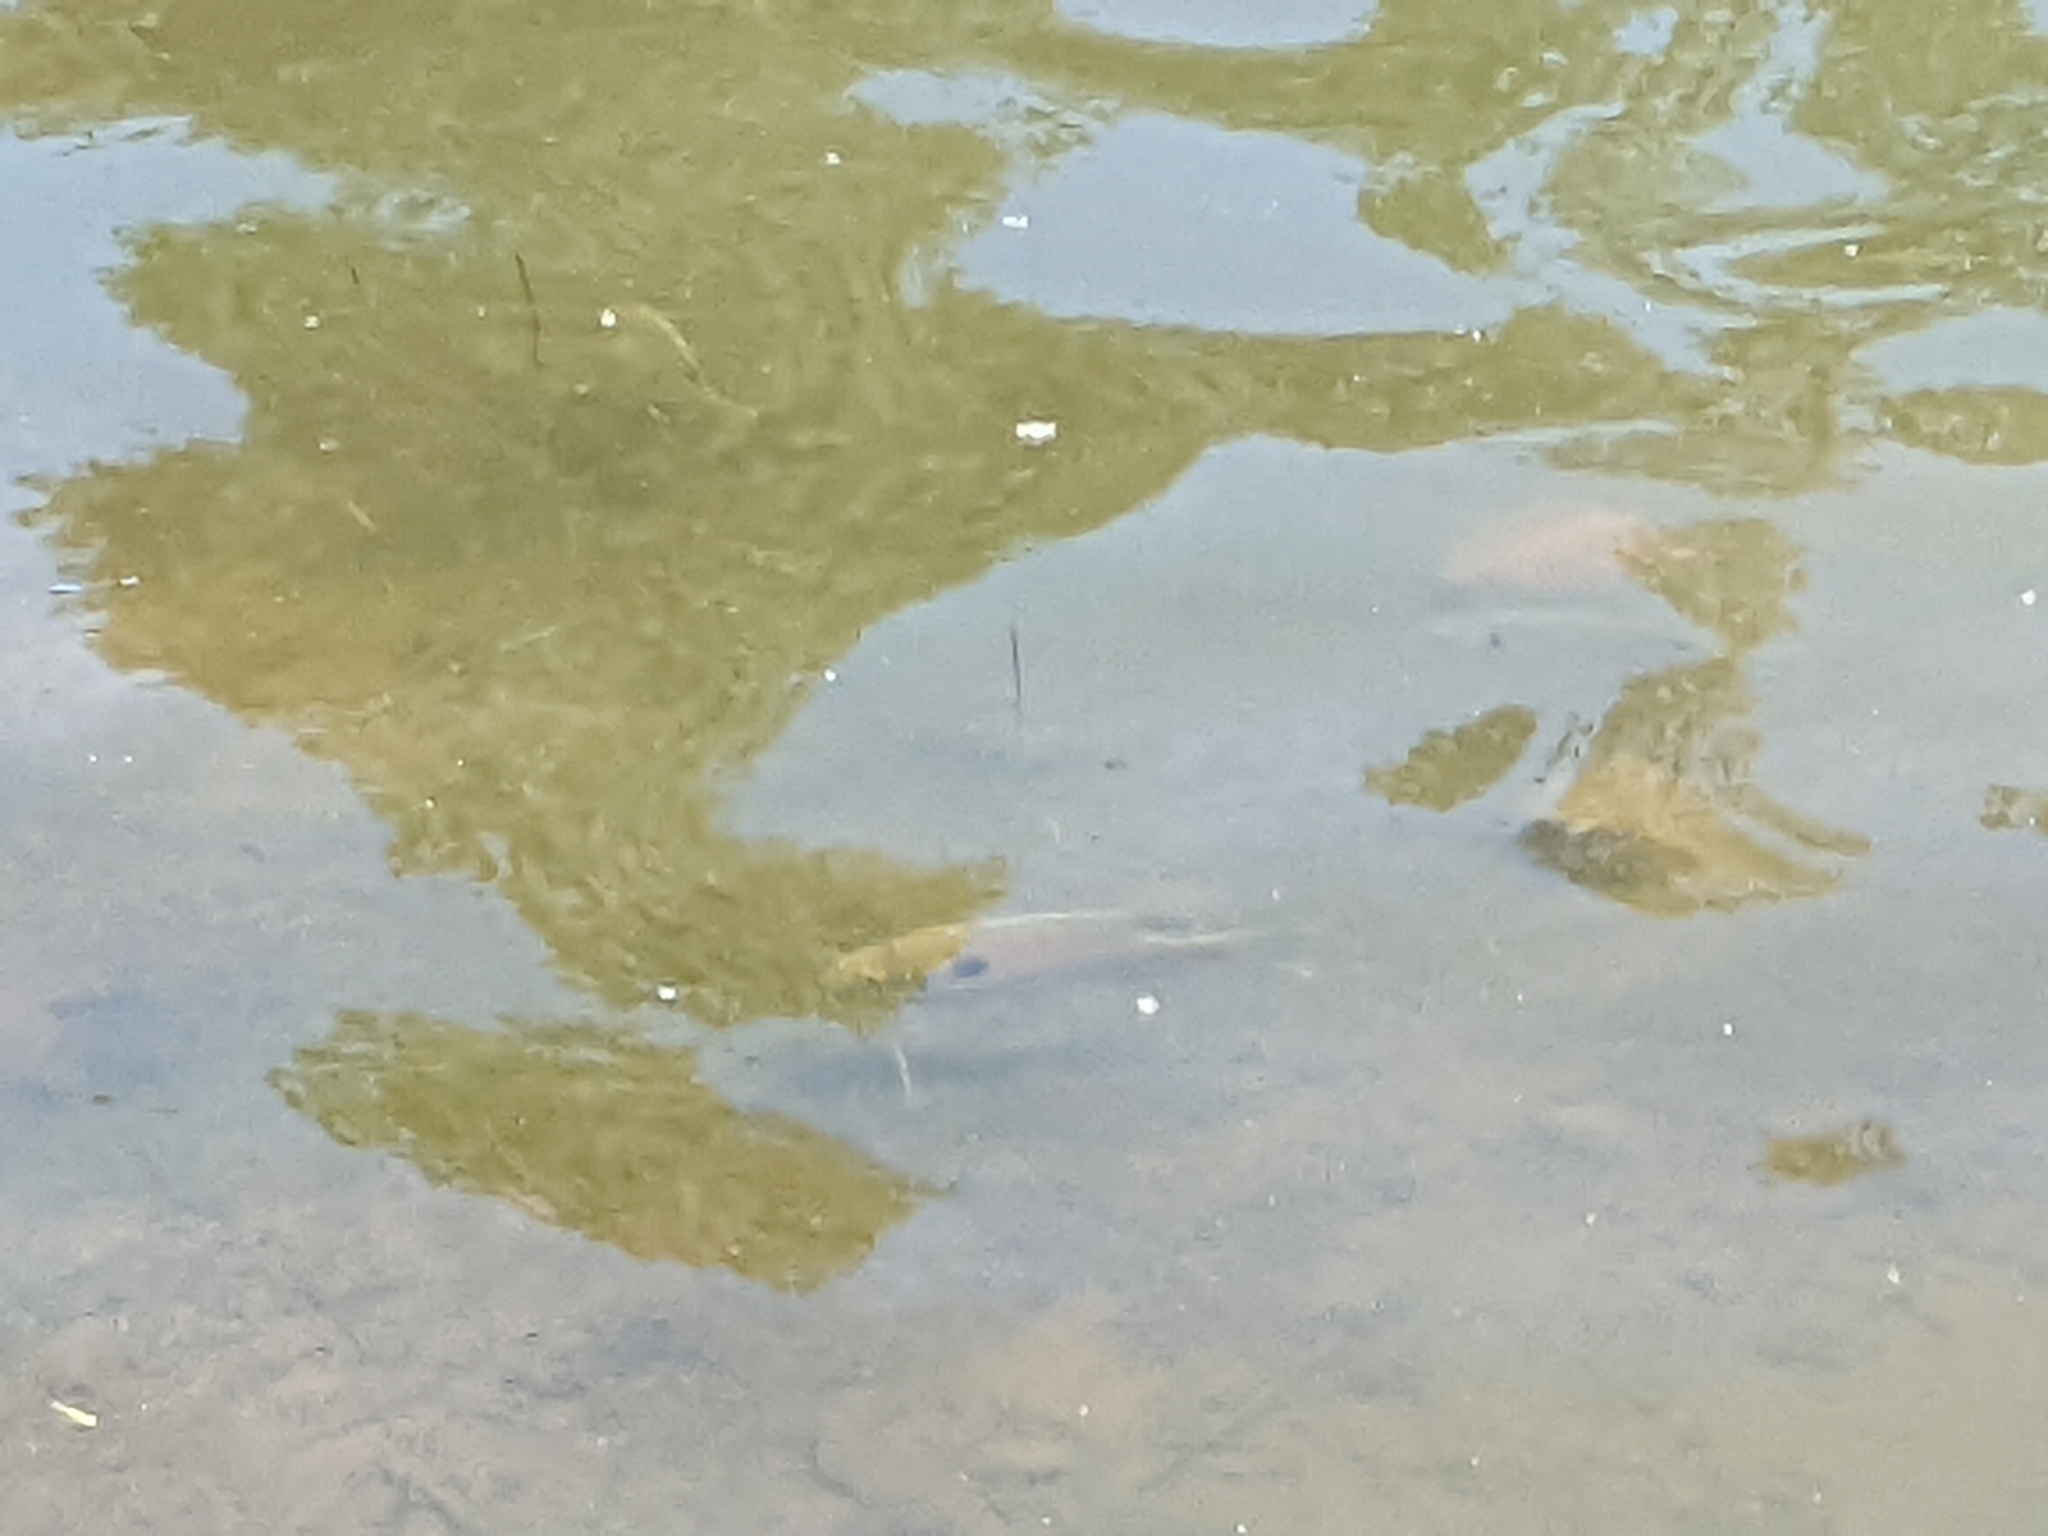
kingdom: Animalia
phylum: Chordata
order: Perciformes
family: Centrarchidae
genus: Lepomis
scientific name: Lepomis macrochirus
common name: Bluegill
